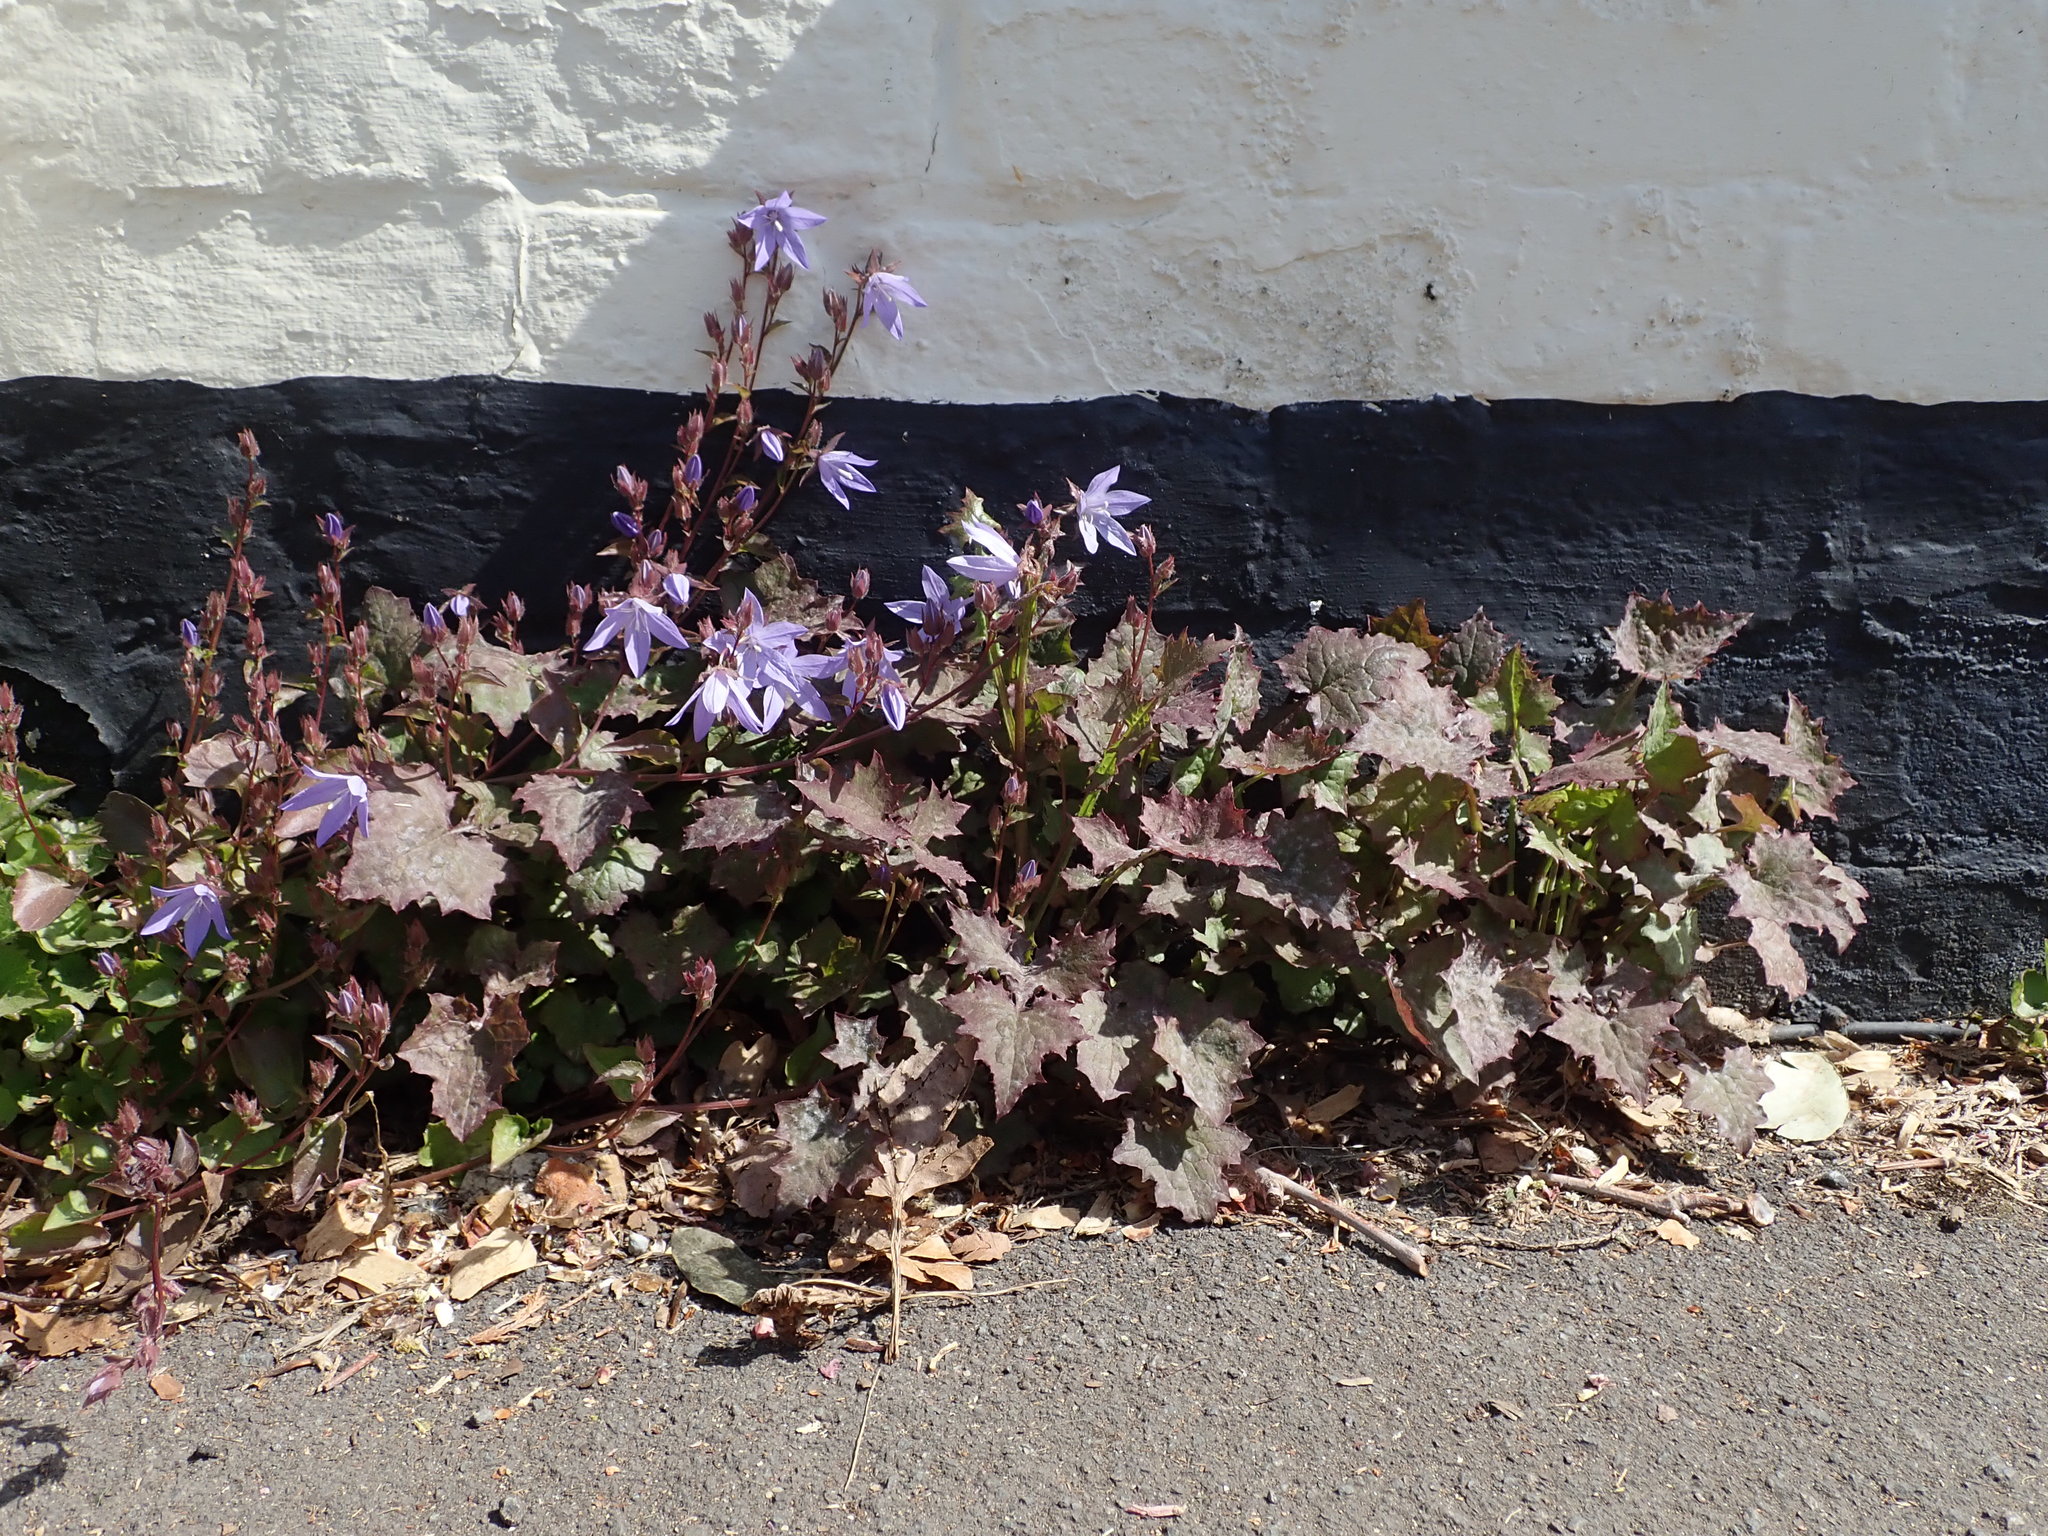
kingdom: Plantae
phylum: Tracheophyta
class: Magnoliopsida
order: Asterales
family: Campanulaceae
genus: Campanula
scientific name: Campanula poscharskyana
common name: Trailing bellflower
